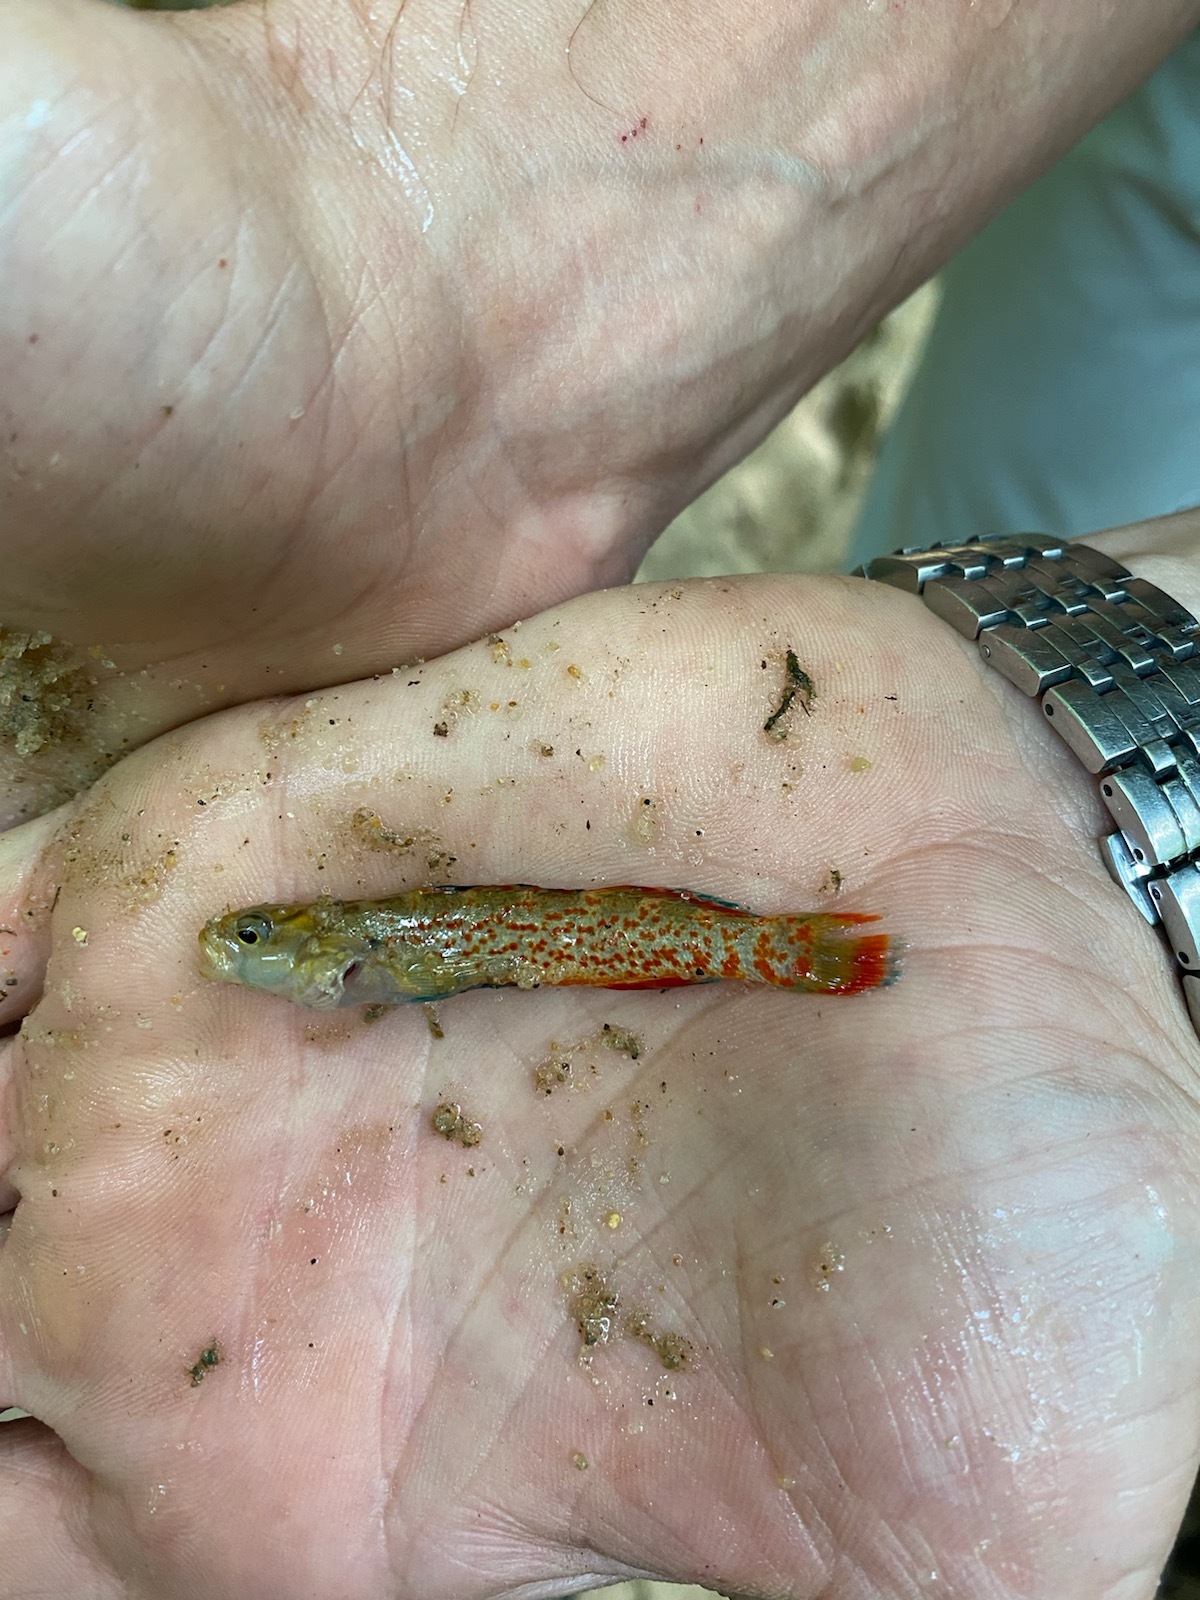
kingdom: Animalia
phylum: Chordata
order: Perciformes
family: Percidae
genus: Etheostoma
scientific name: Etheostoma artesiae
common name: Redspot darter
